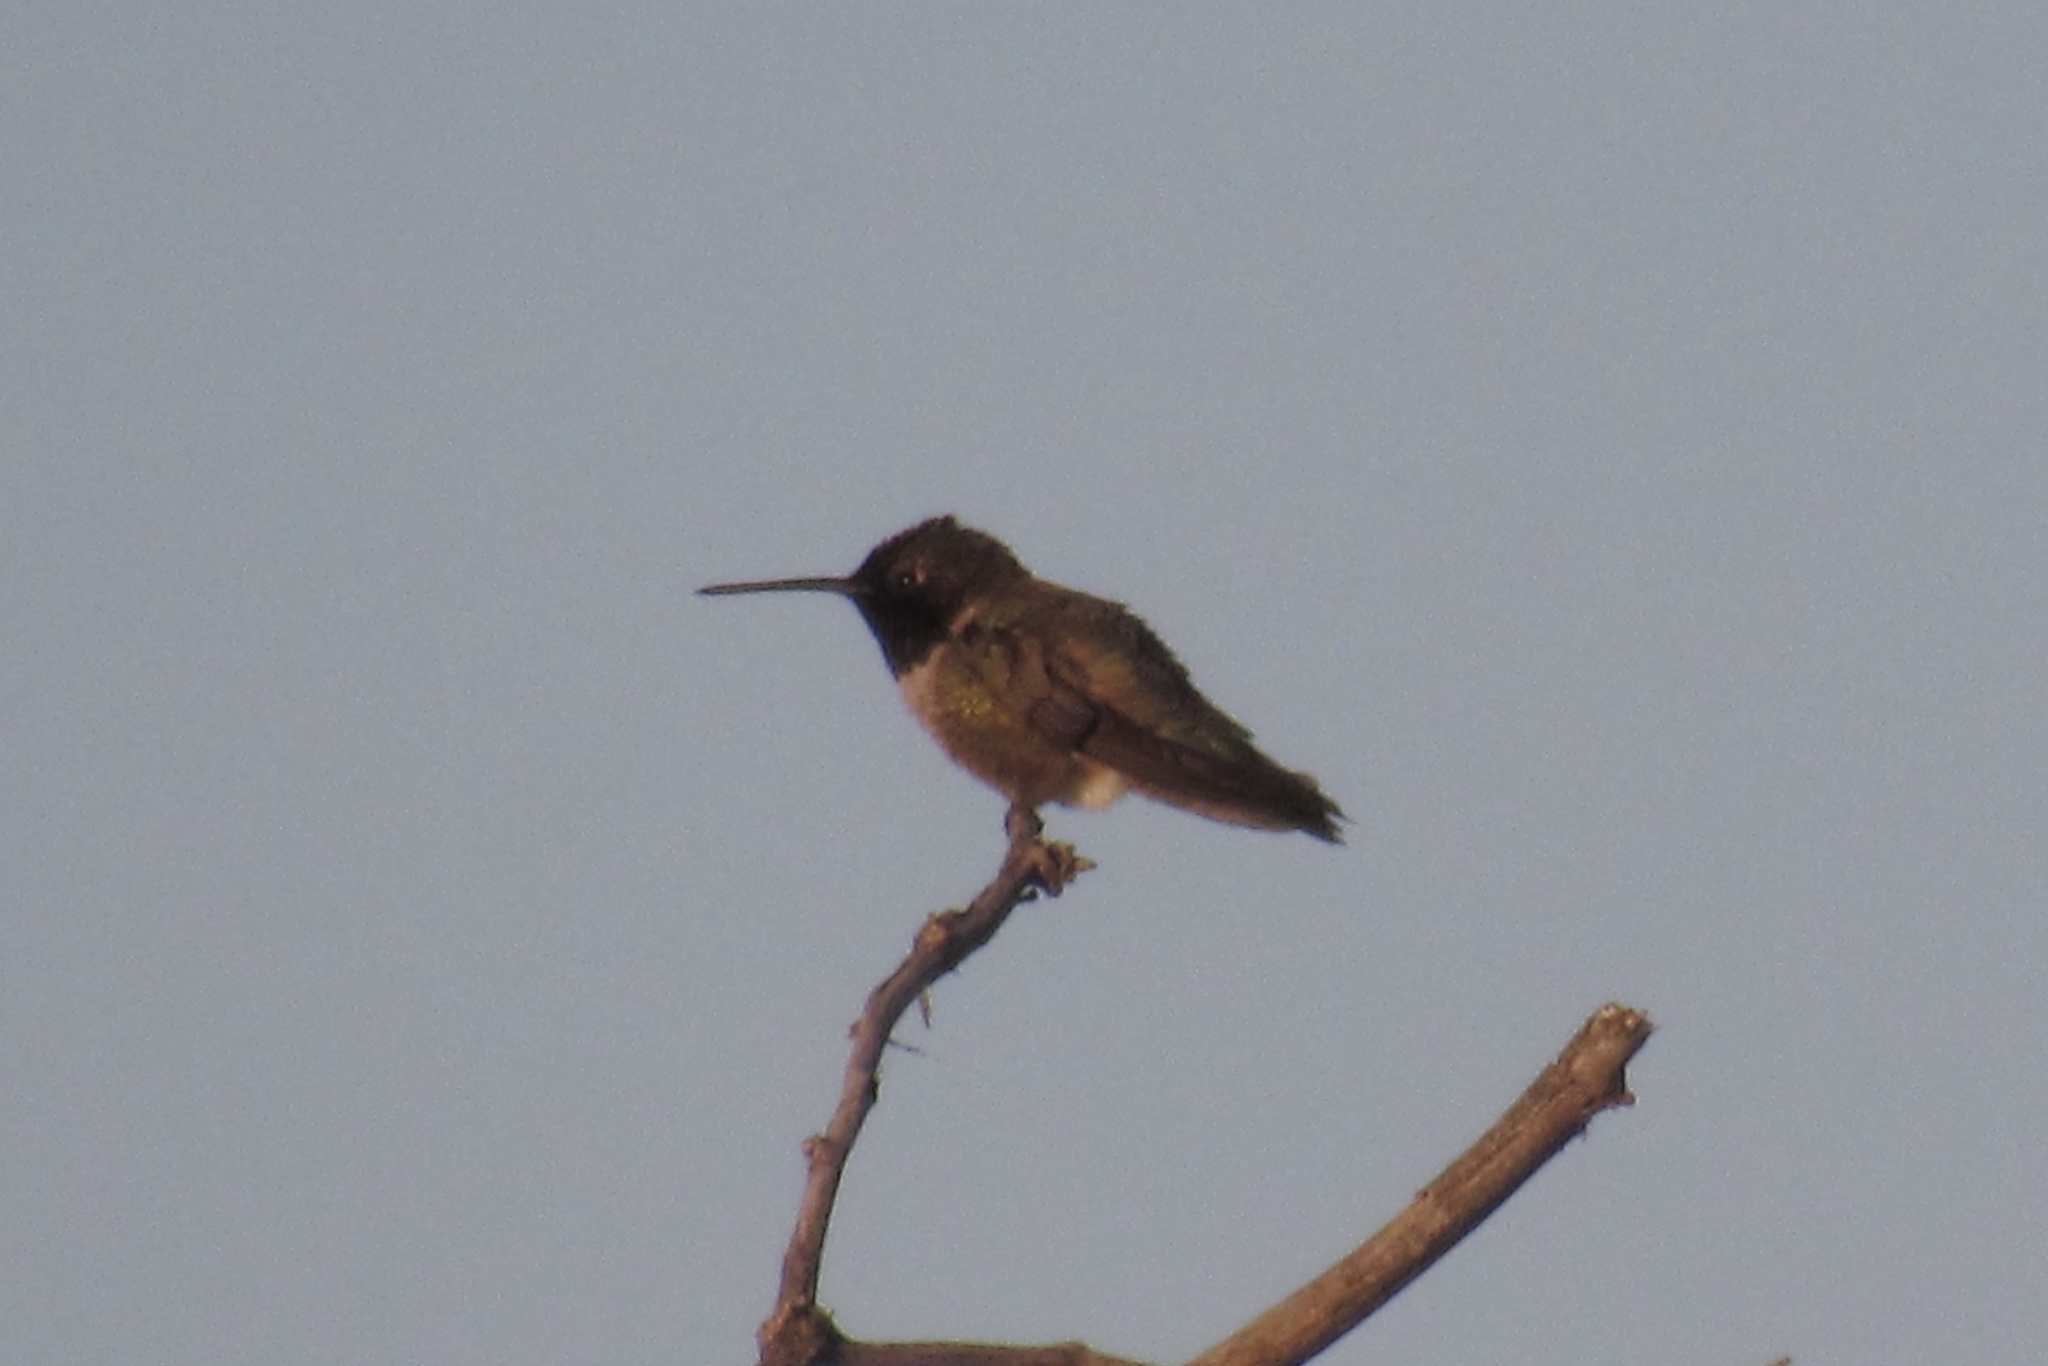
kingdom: Animalia
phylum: Chordata
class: Aves
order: Apodiformes
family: Trochilidae
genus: Archilochus
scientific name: Archilochus alexandri
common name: Black-chinned hummingbird
